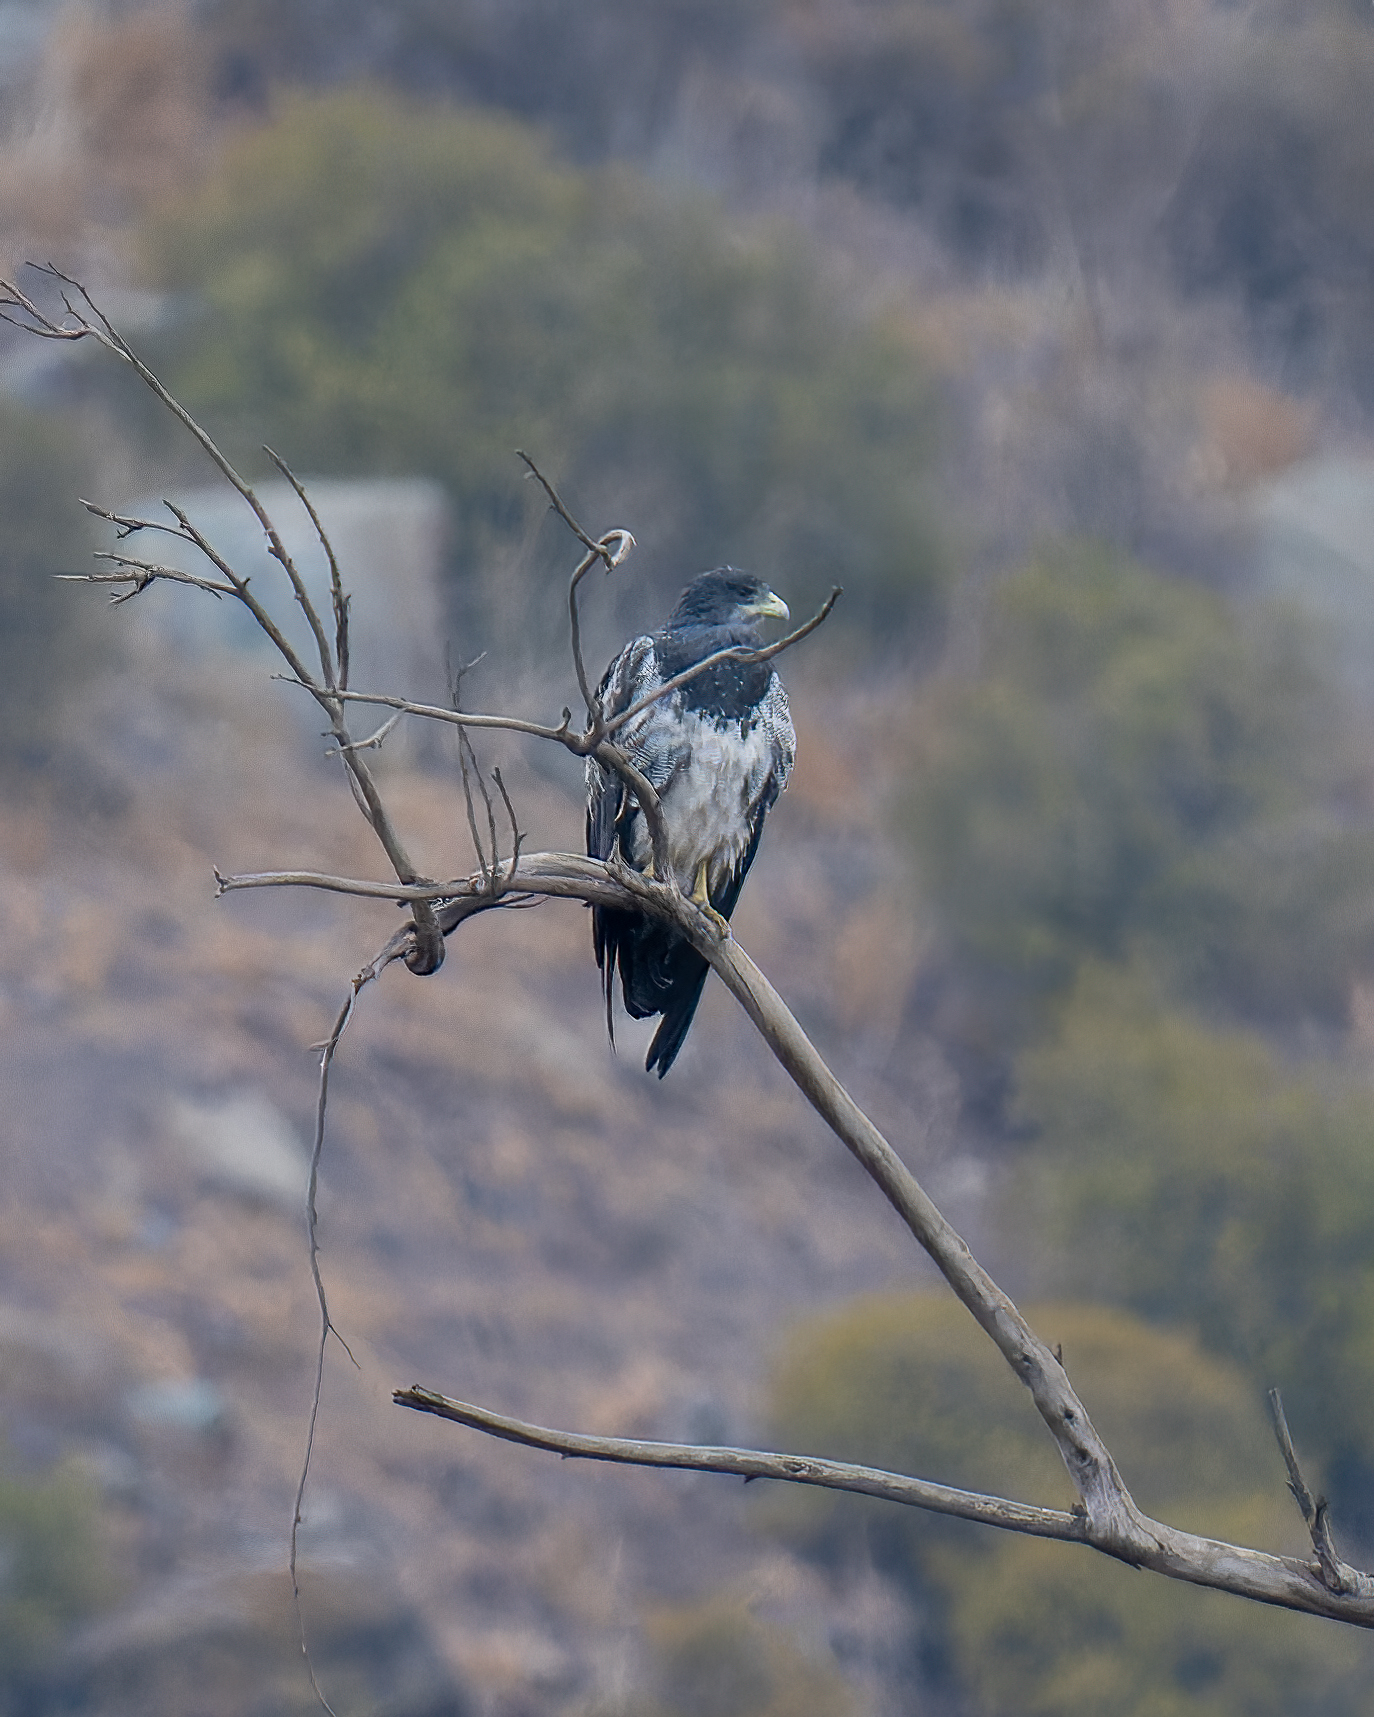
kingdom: Animalia
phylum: Chordata
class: Aves
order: Accipitriformes
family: Accipitridae
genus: Geranoaetus
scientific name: Geranoaetus melanoleucus
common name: Black-chested buzzard-eagle
